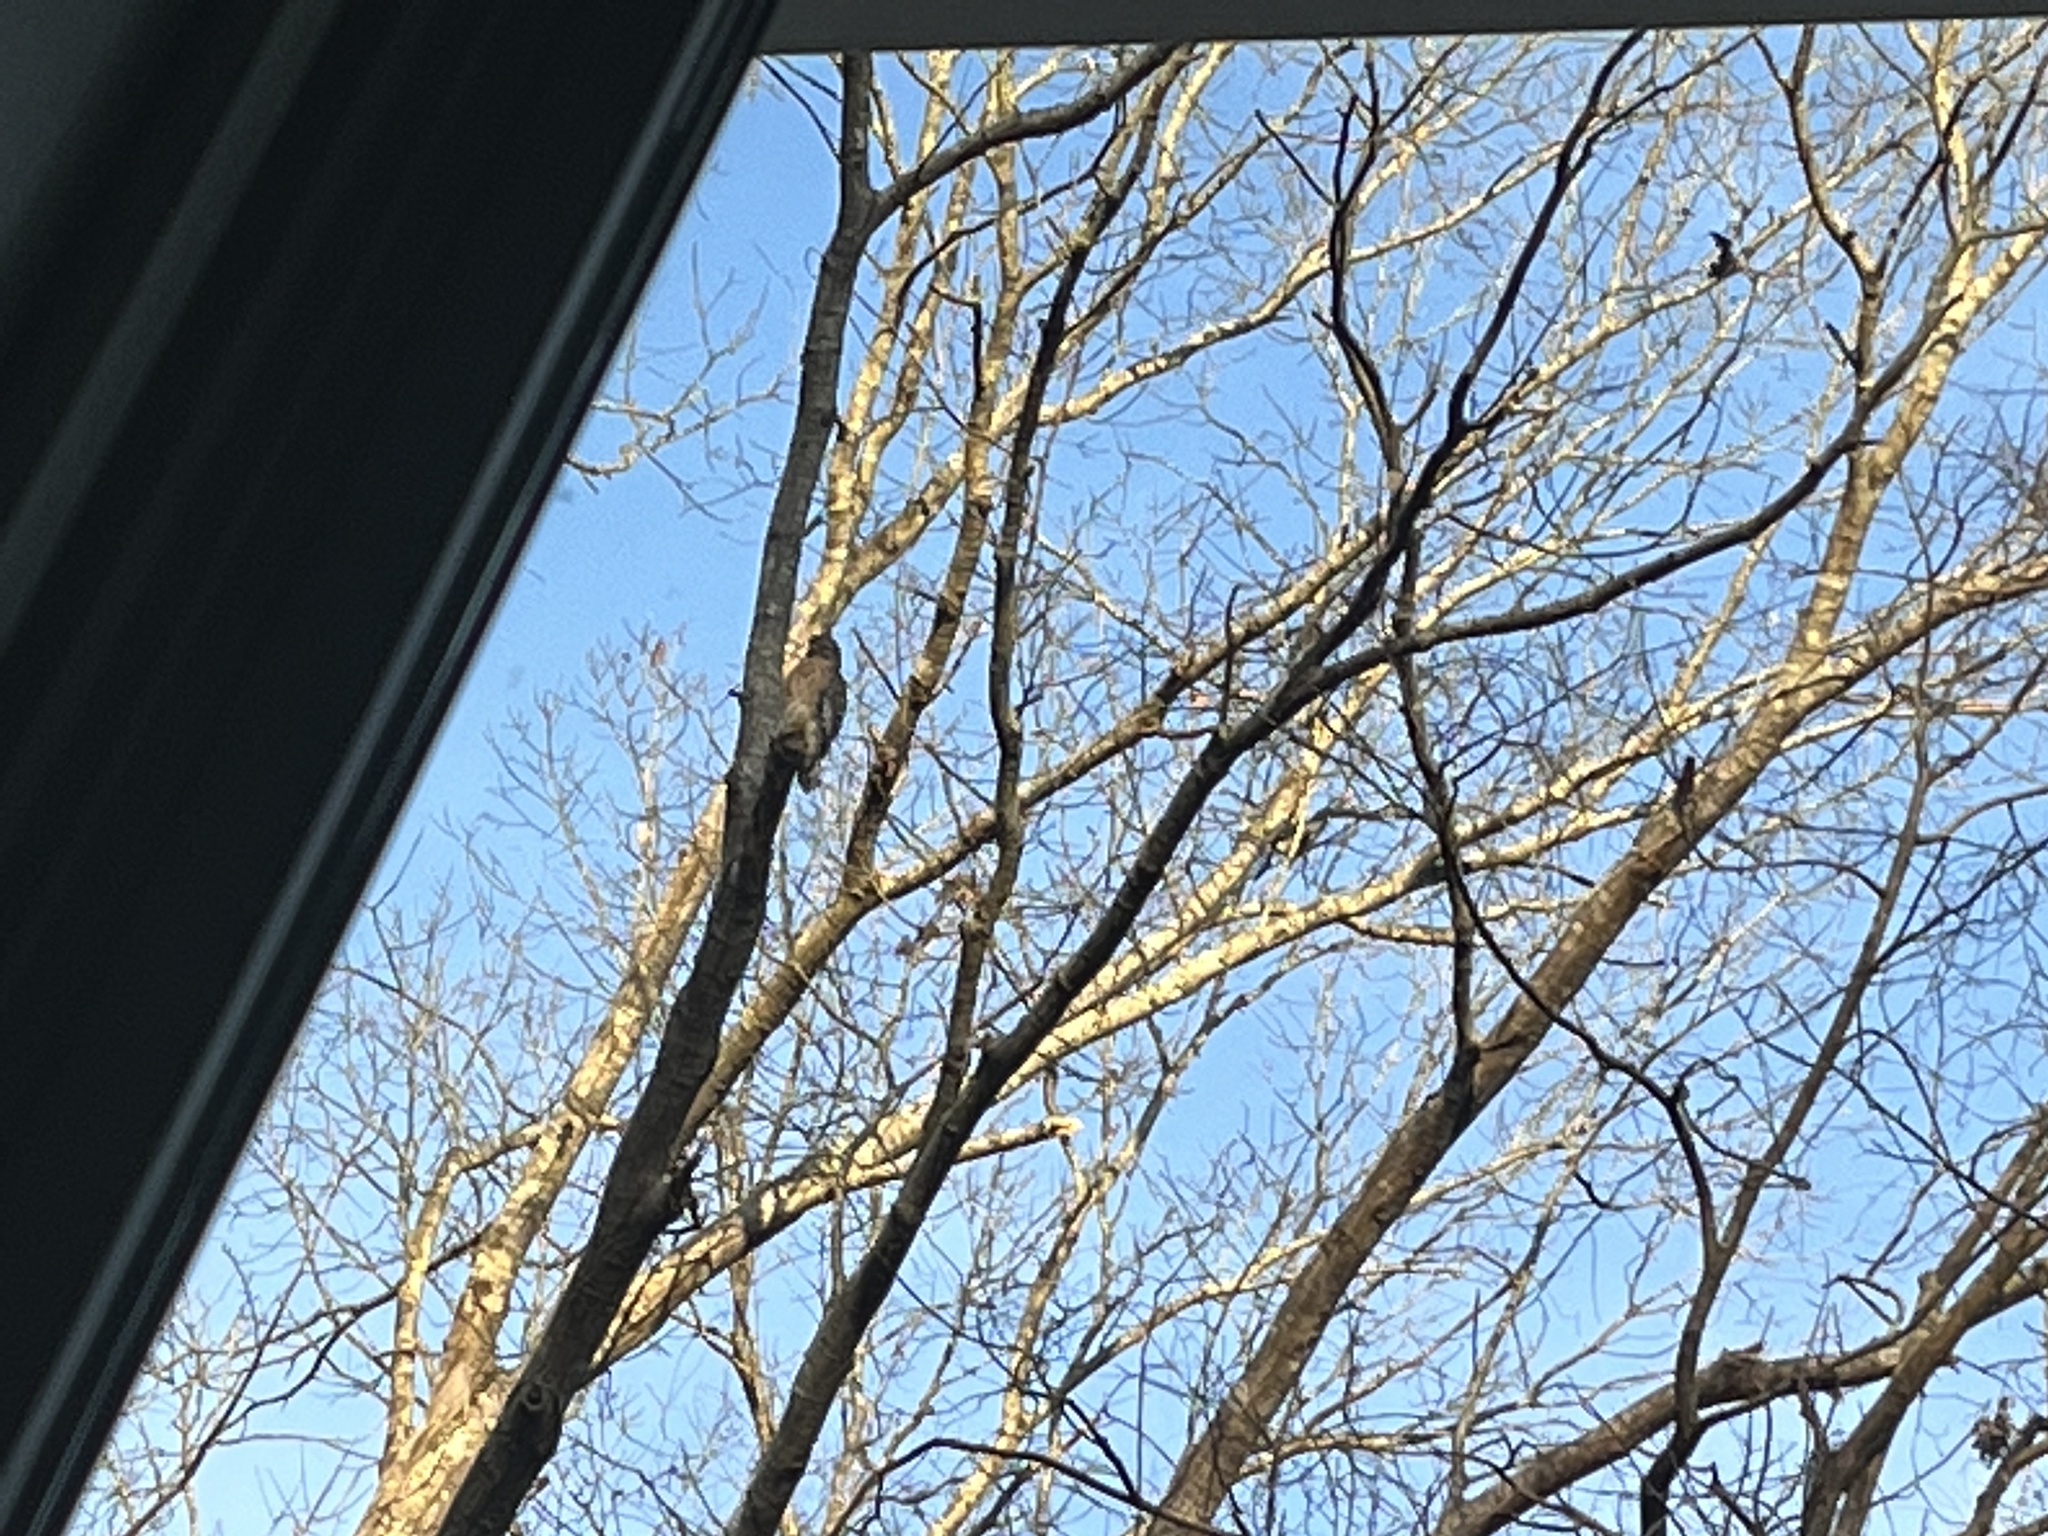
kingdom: Animalia
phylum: Chordata
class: Aves
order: Accipitriformes
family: Accipitridae
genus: Buteo
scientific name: Buteo lineatus
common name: Red-shouldered hawk
